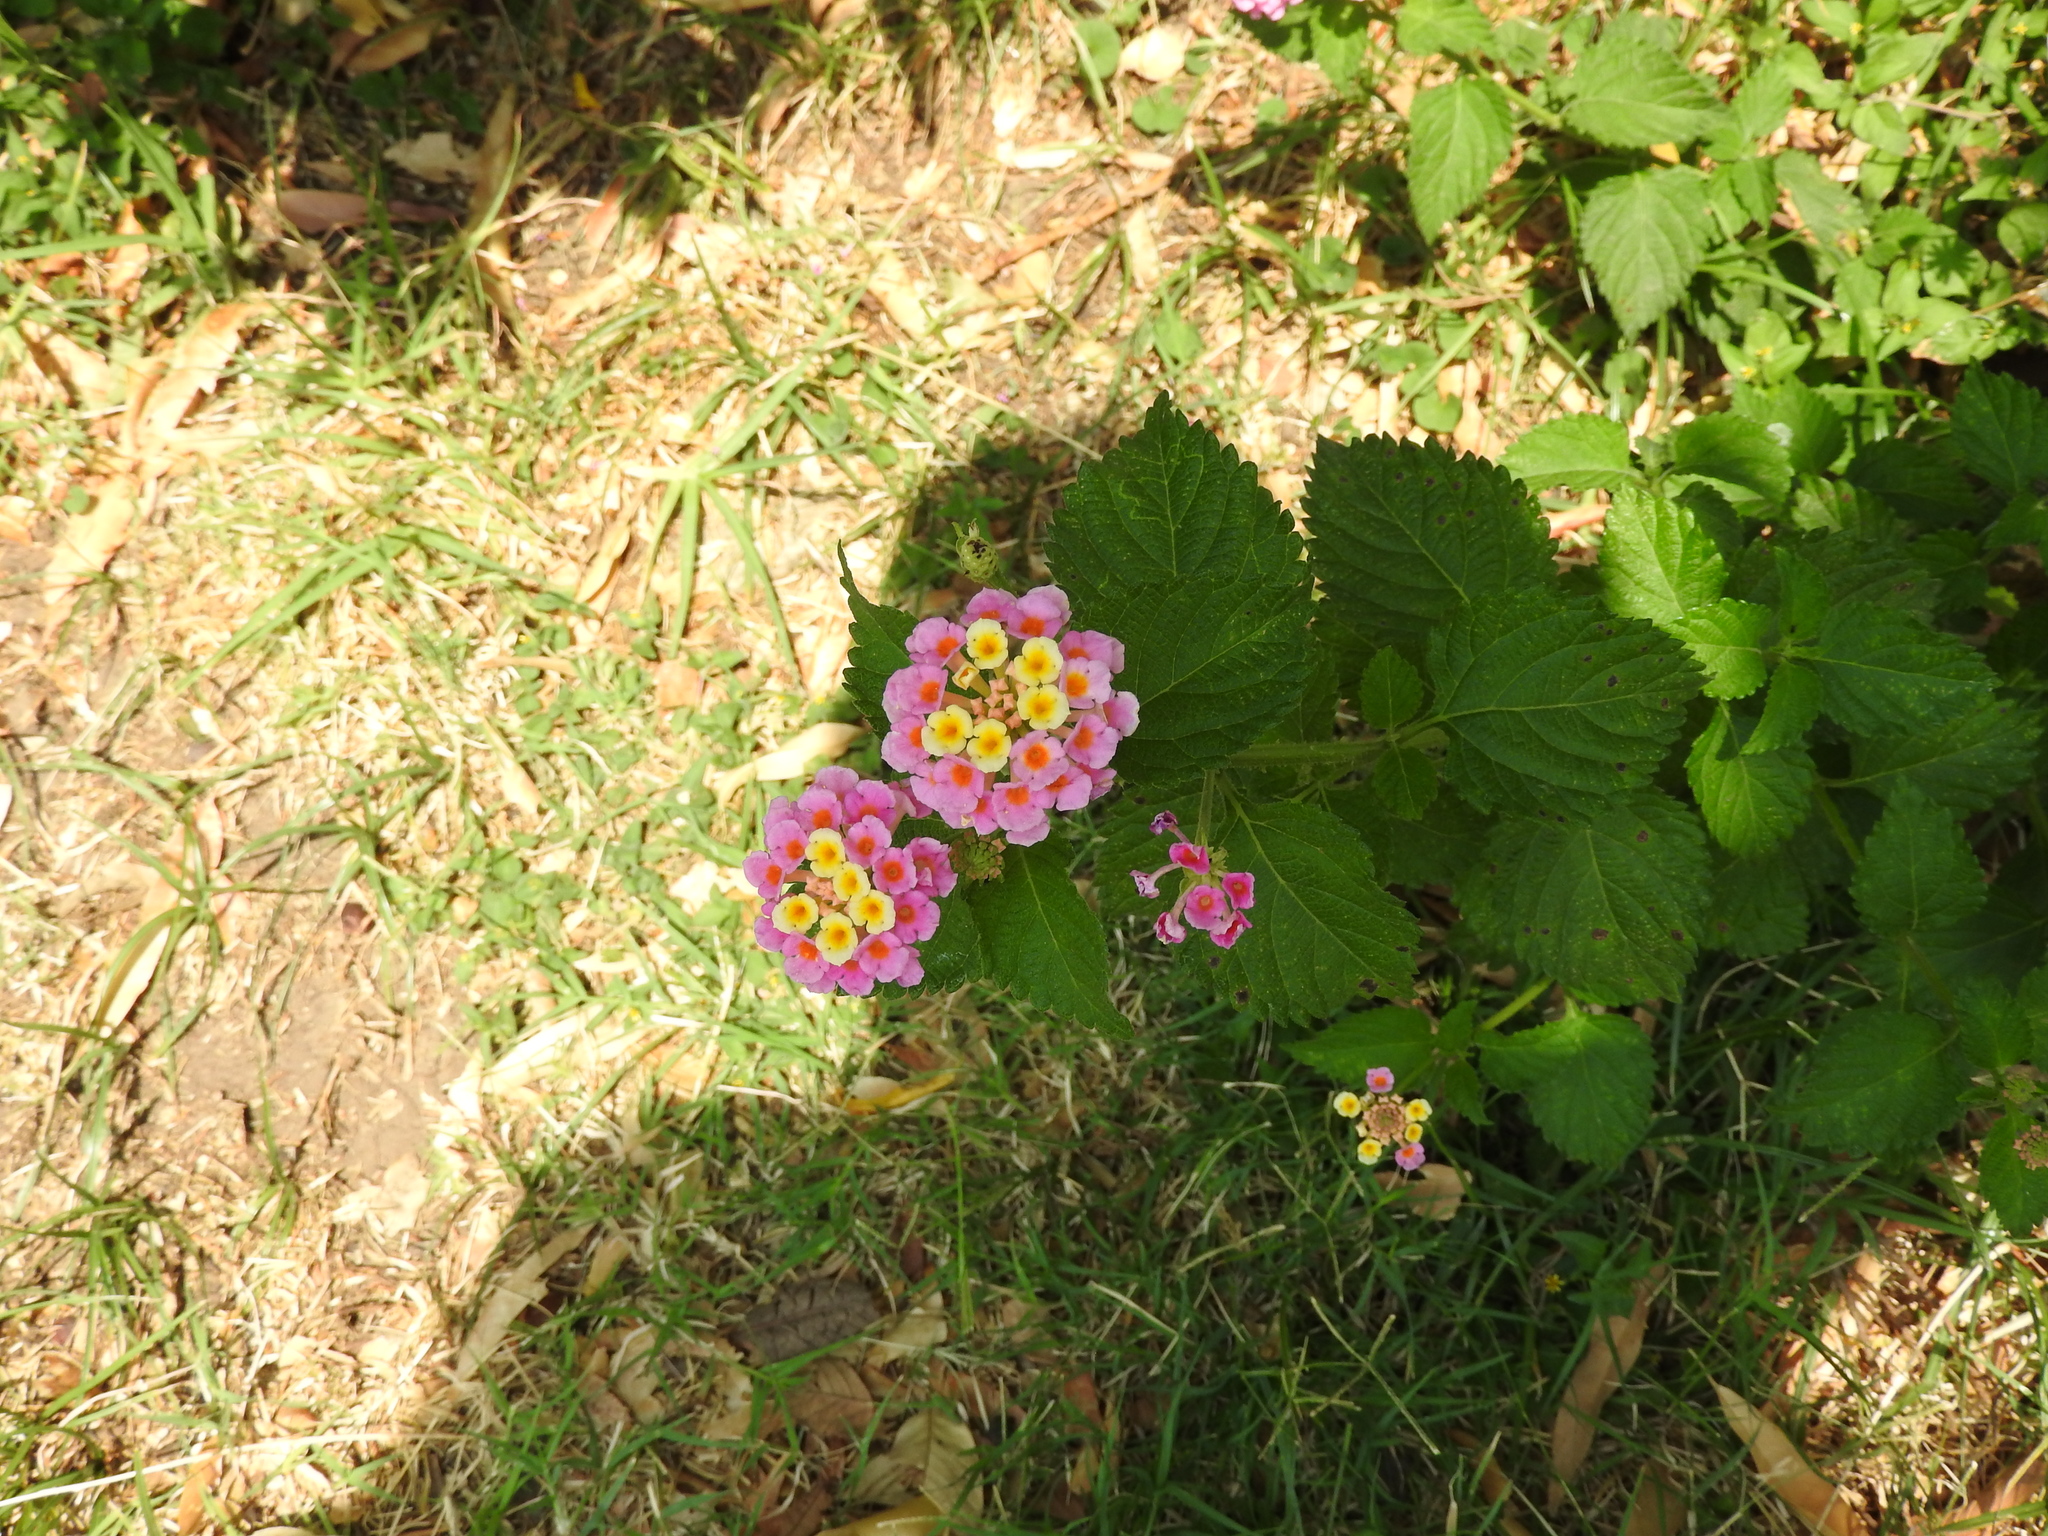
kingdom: Plantae
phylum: Tracheophyta
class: Magnoliopsida
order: Lamiales
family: Verbenaceae
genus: Lantana
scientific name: Lantana camara
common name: Lantana
